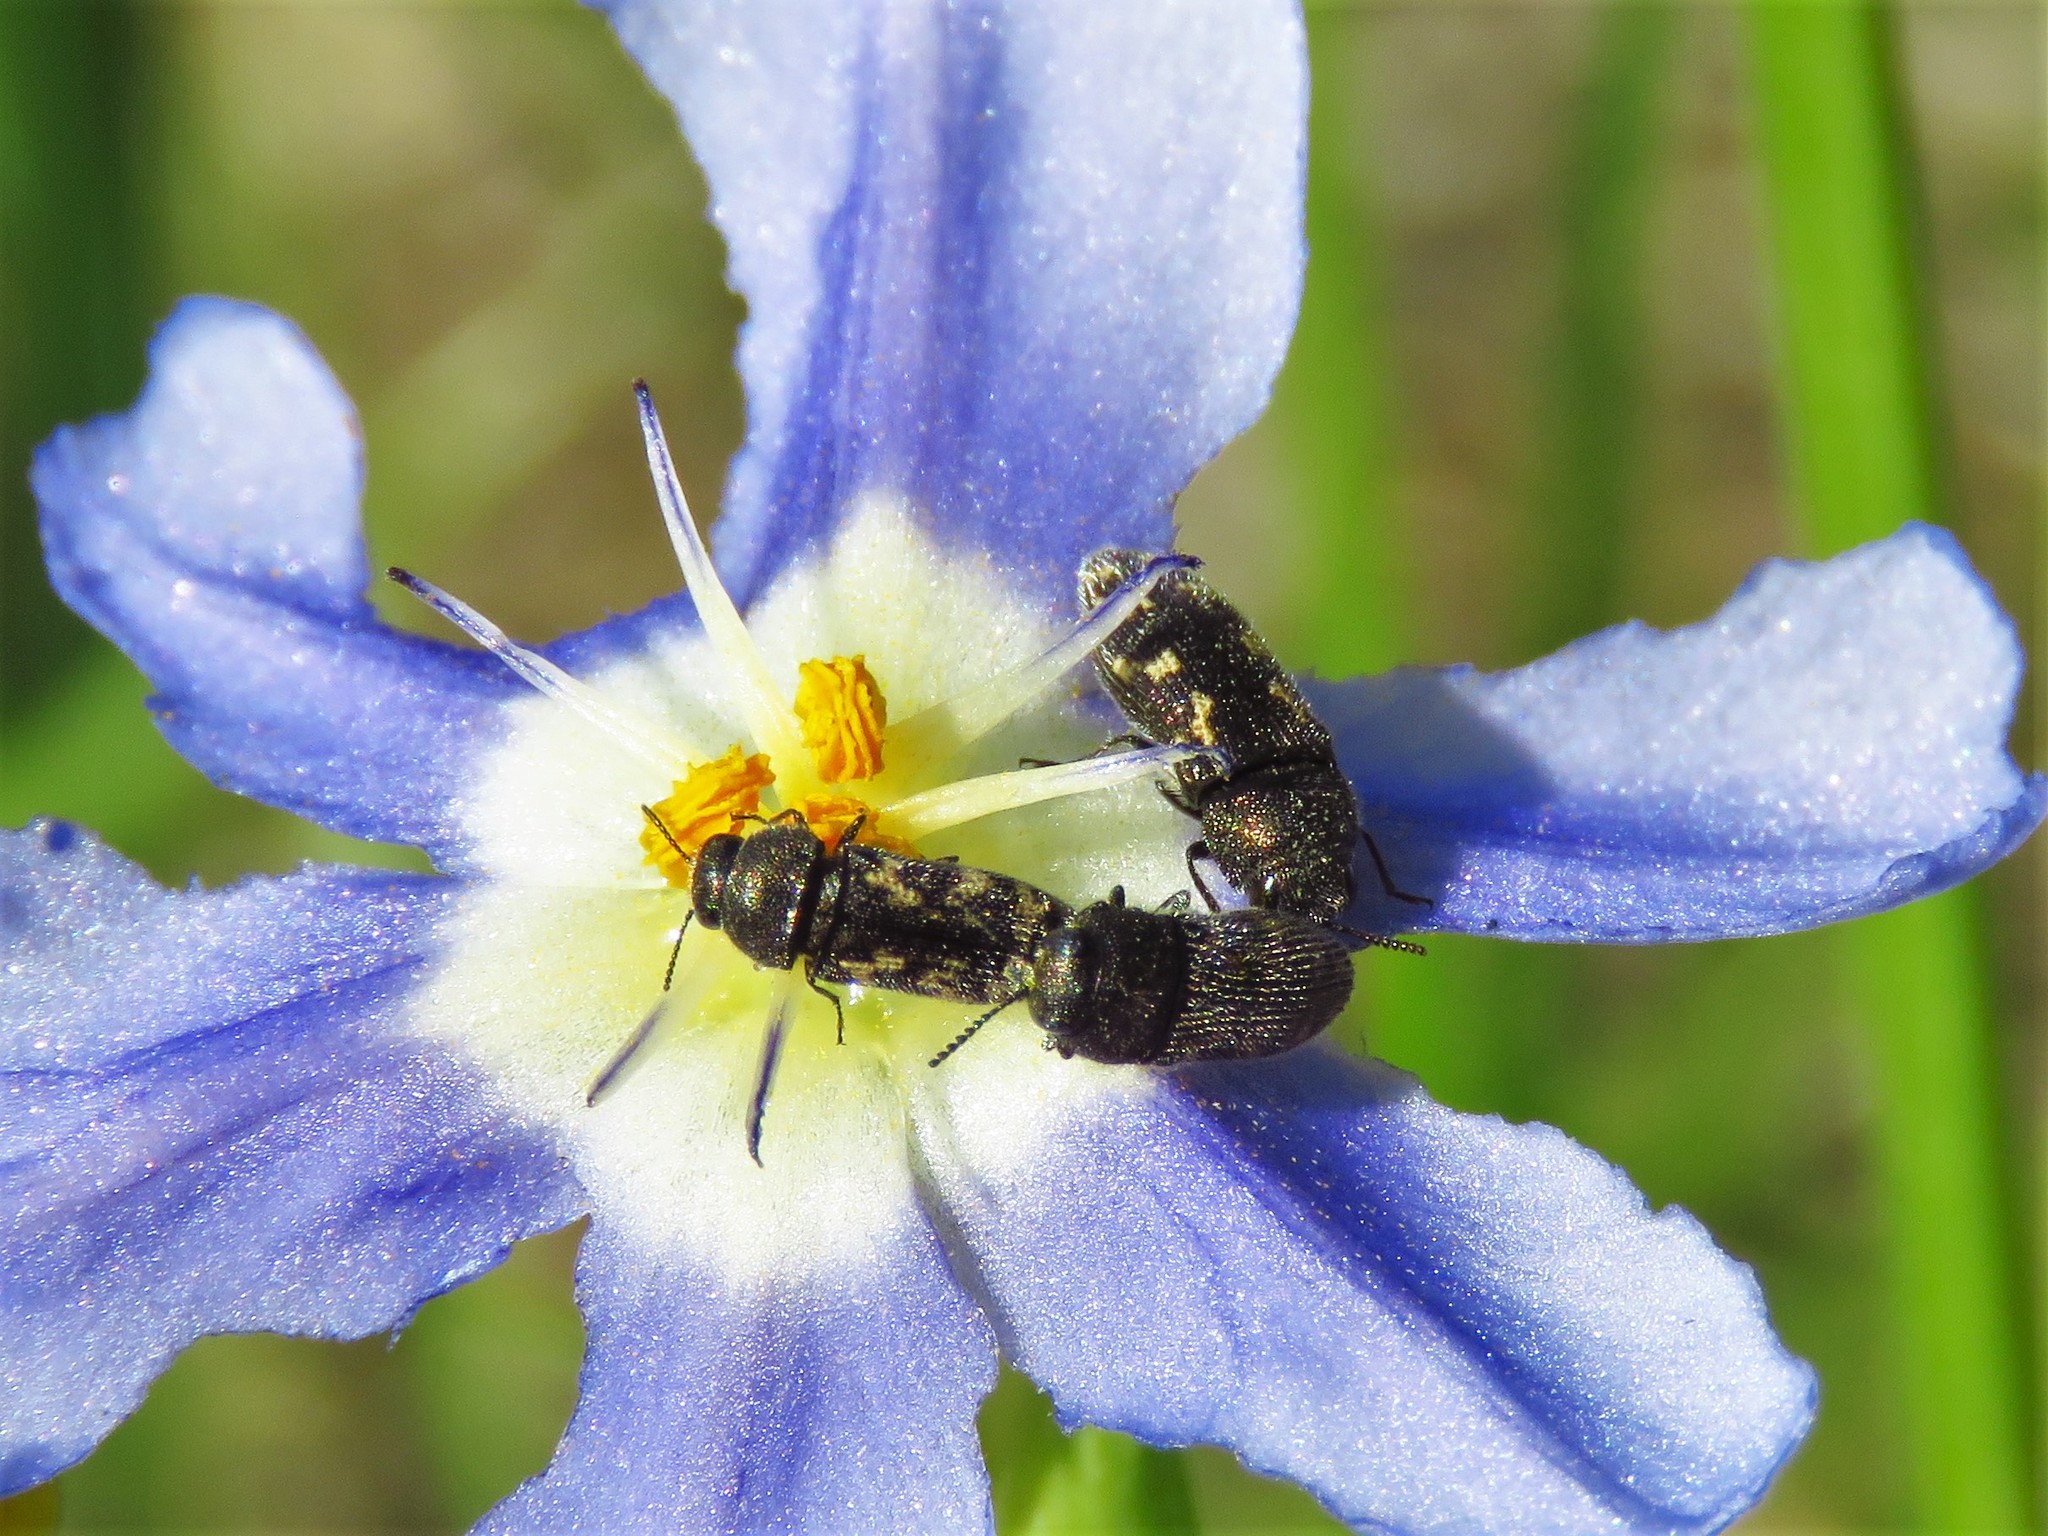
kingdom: Animalia
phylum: Arthropoda
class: Insecta
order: Coleoptera
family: Buprestidae
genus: Acmaeodera
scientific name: Acmaeodera neglecta
